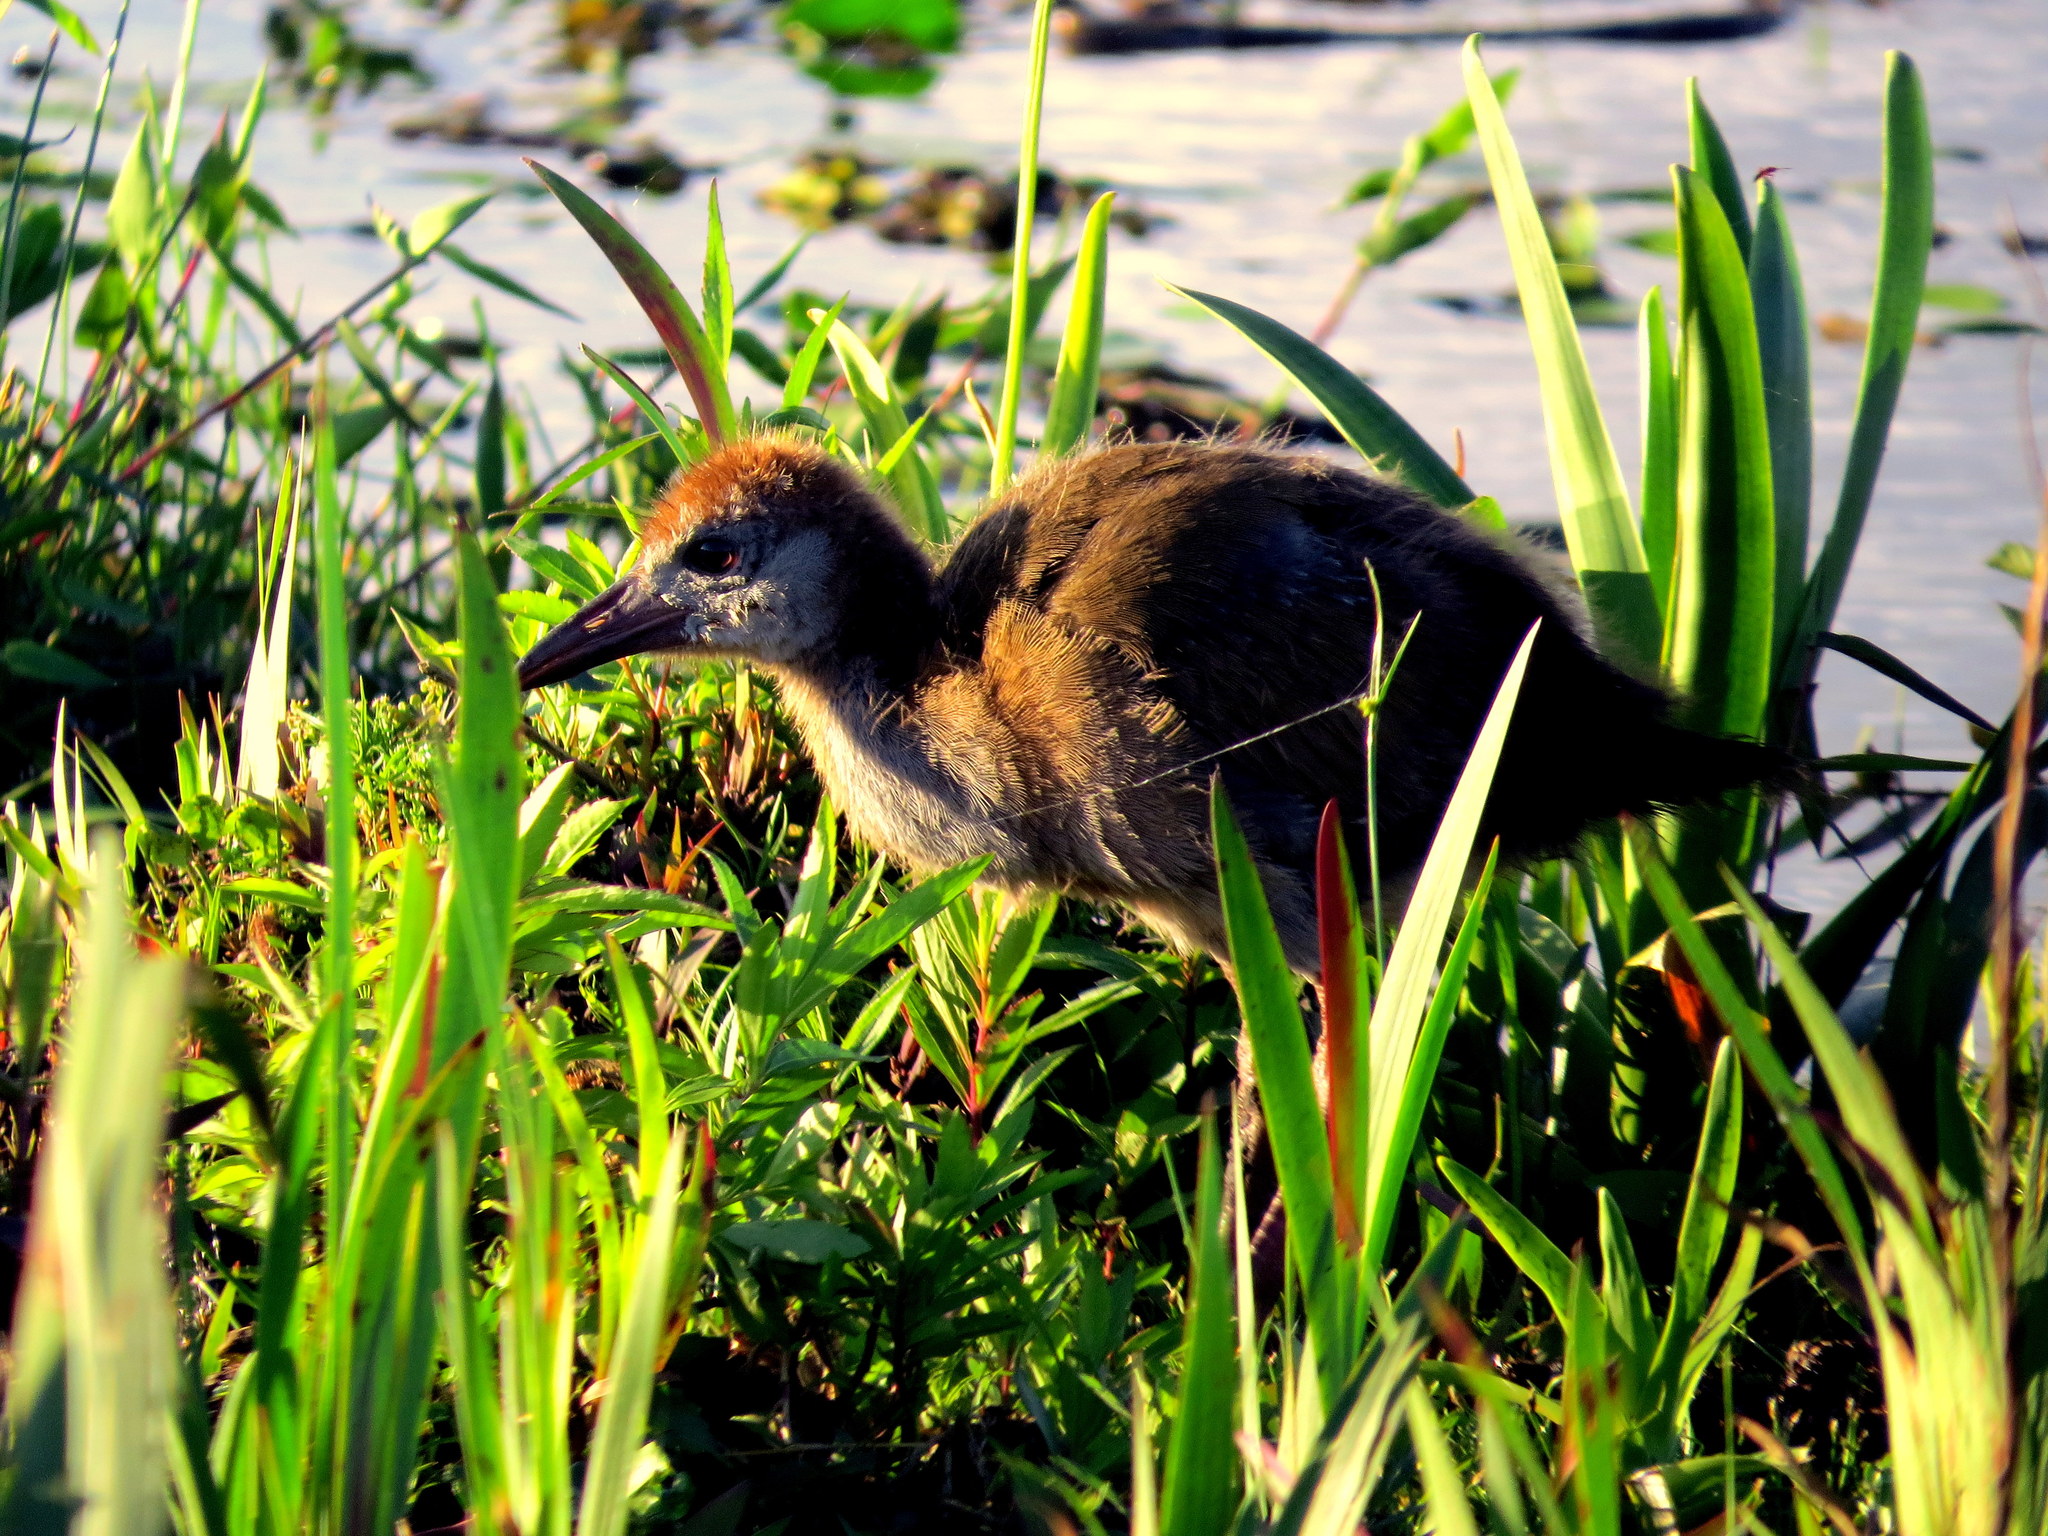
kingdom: Animalia
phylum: Chordata
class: Aves
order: Gruiformes
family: Rallidae
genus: Aramides
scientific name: Aramides ypecaha
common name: Giant wood rail
